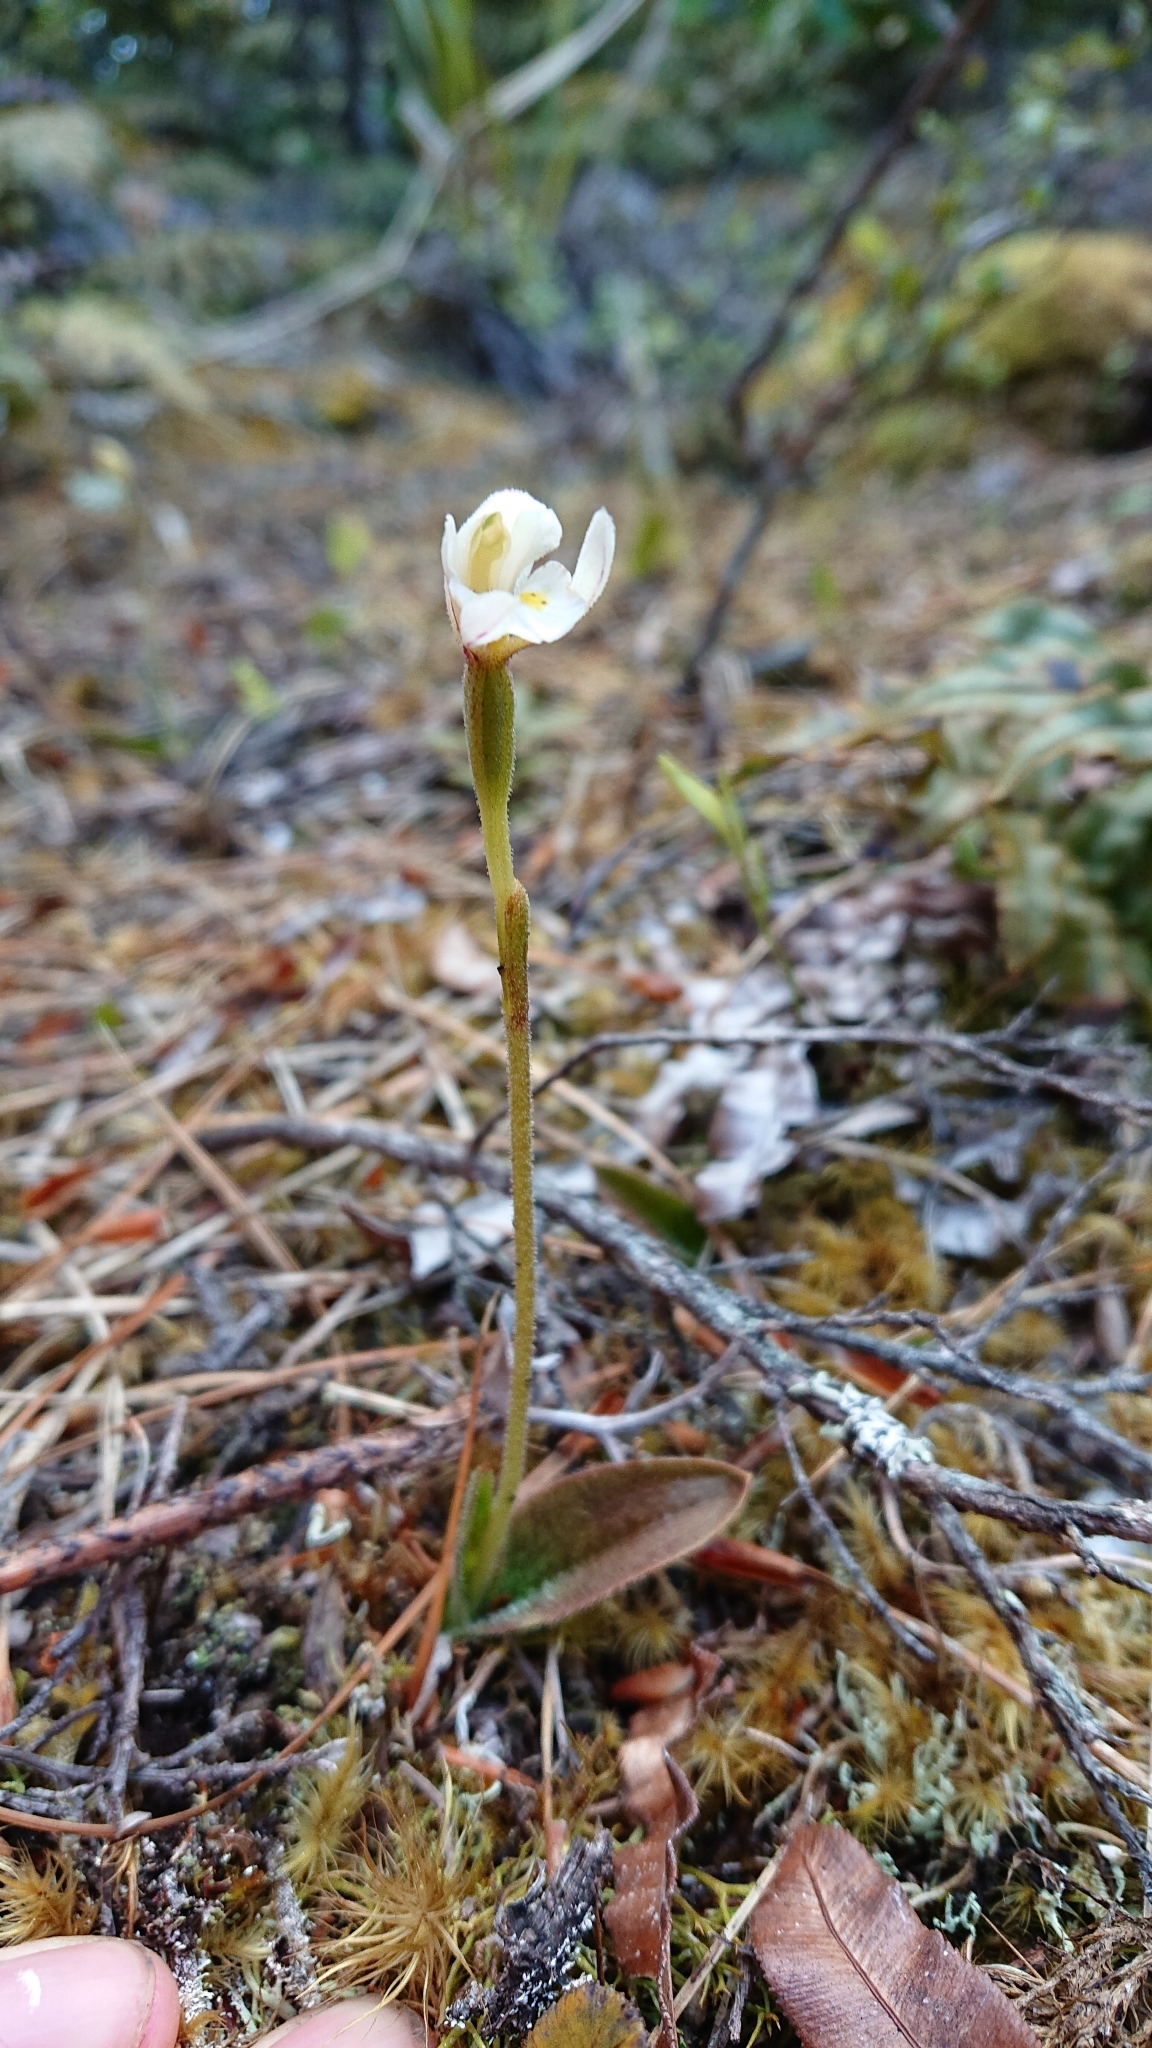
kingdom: Plantae
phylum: Tracheophyta
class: Liliopsida
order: Asparagales
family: Orchidaceae
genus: Aporostylis
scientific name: Aporostylis bifolia
